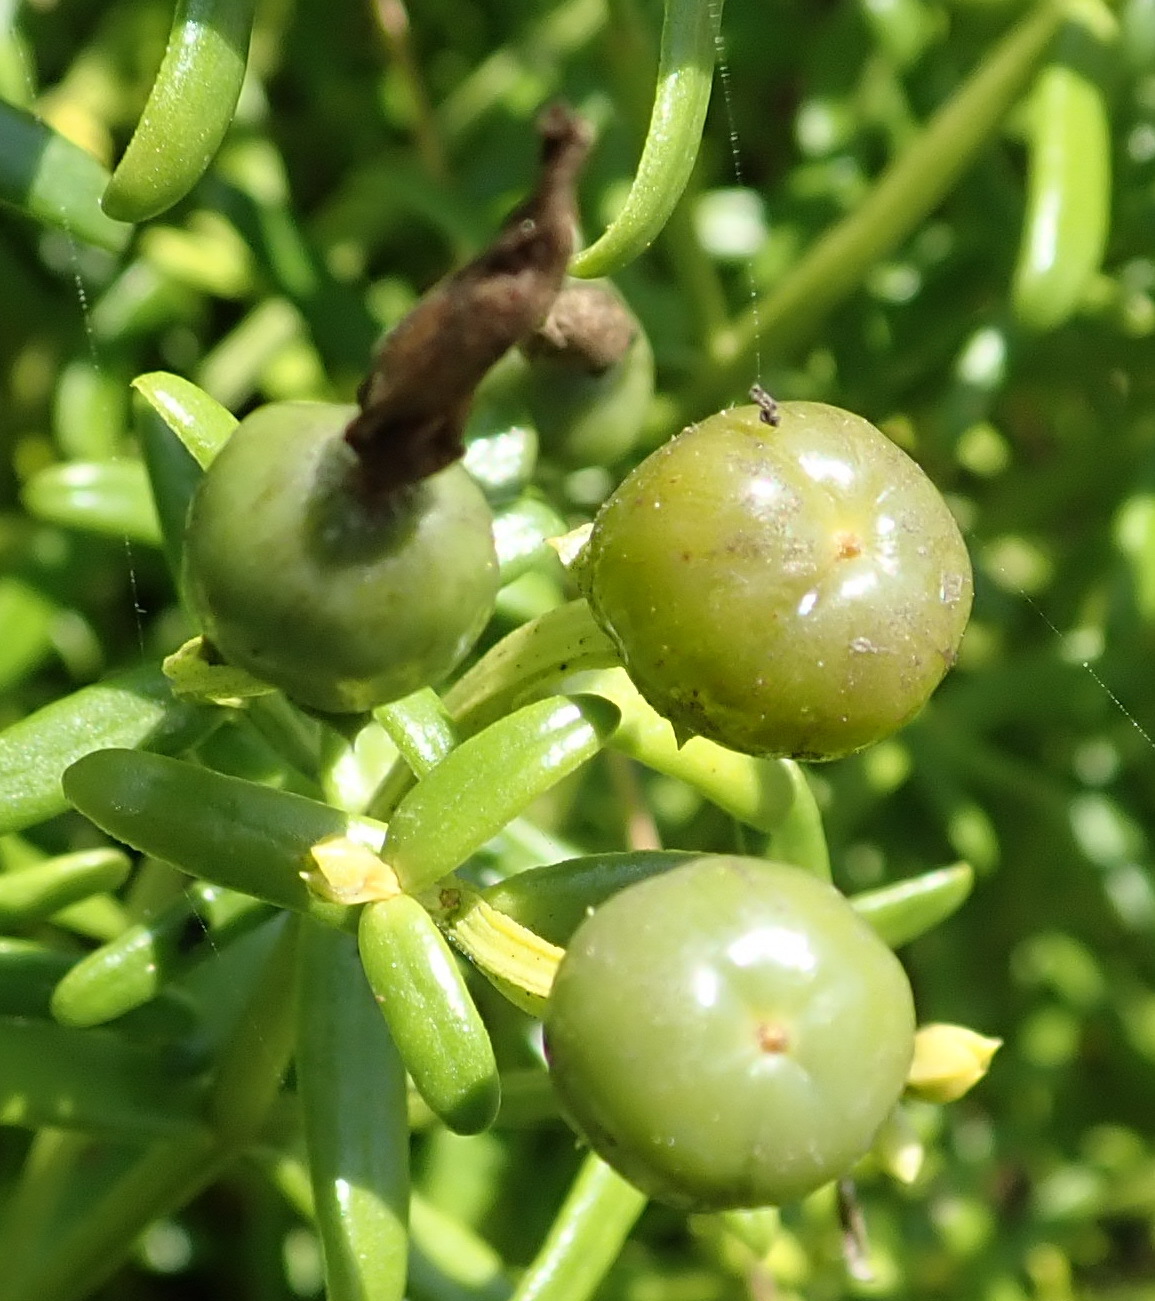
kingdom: Plantae
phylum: Tracheophyta
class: Magnoliopsida
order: Gentianales
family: Gentianaceae
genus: Chironia
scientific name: Chironia baccifera
